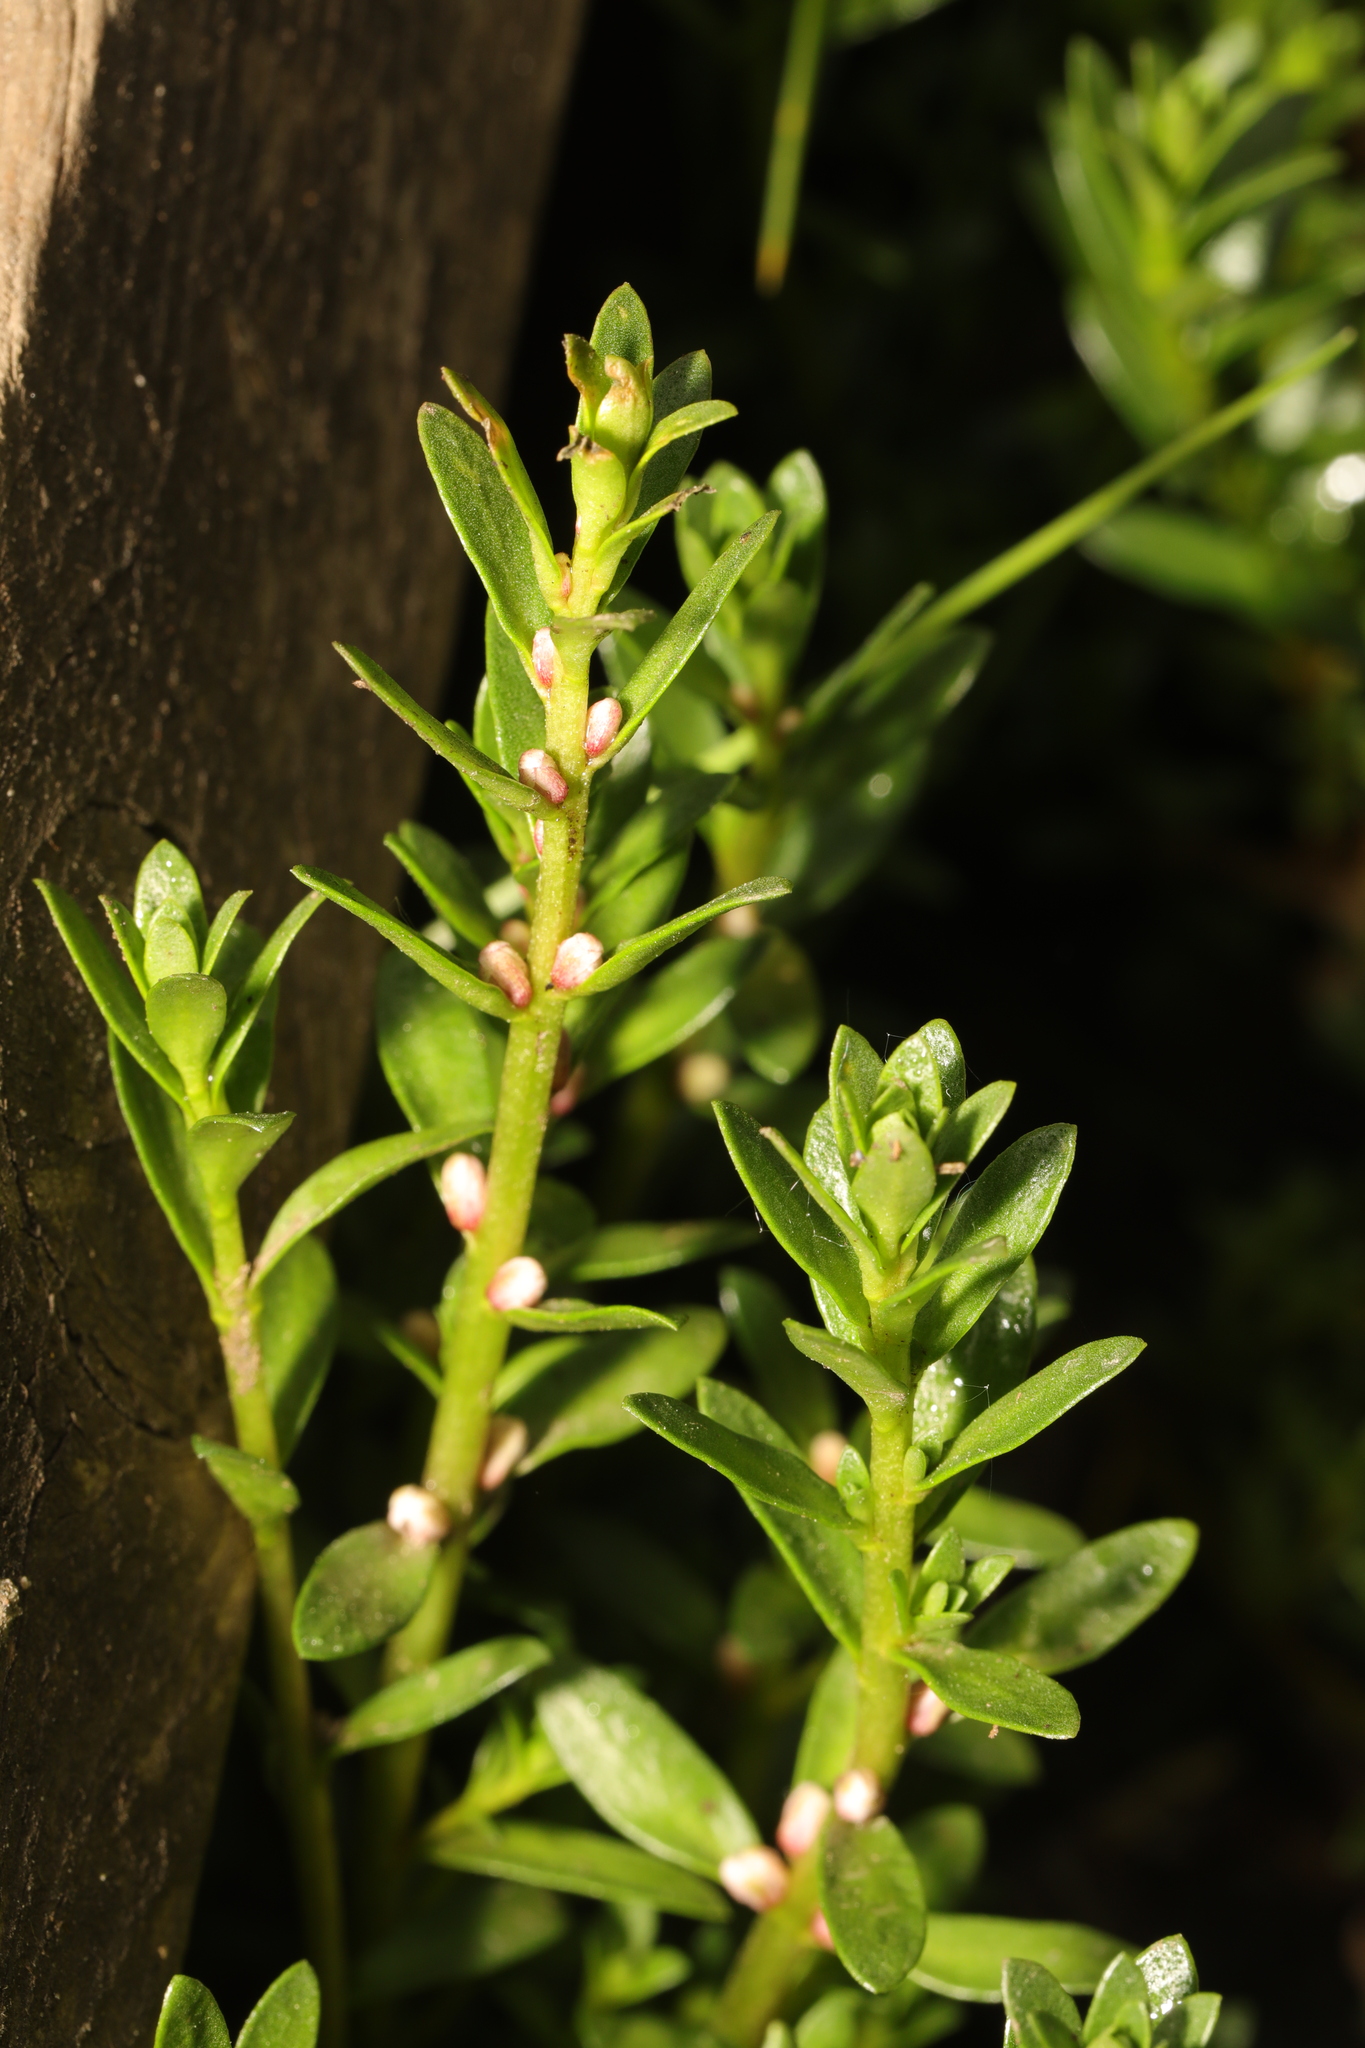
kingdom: Plantae
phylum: Tracheophyta
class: Magnoliopsida
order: Ericales
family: Primulaceae
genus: Lysimachia
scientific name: Lysimachia maritima
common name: Sea milkwort
